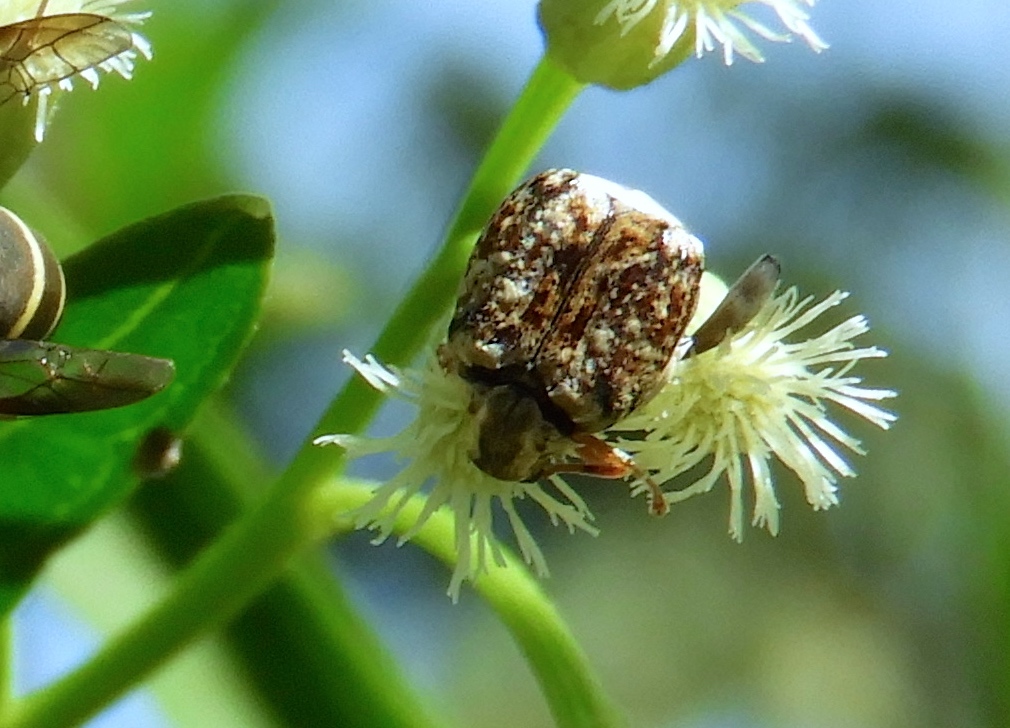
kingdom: Animalia
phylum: Arthropoda
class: Insecta
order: Coleoptera
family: Chrysomelidae
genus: Merobruchus
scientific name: Merobruchus
